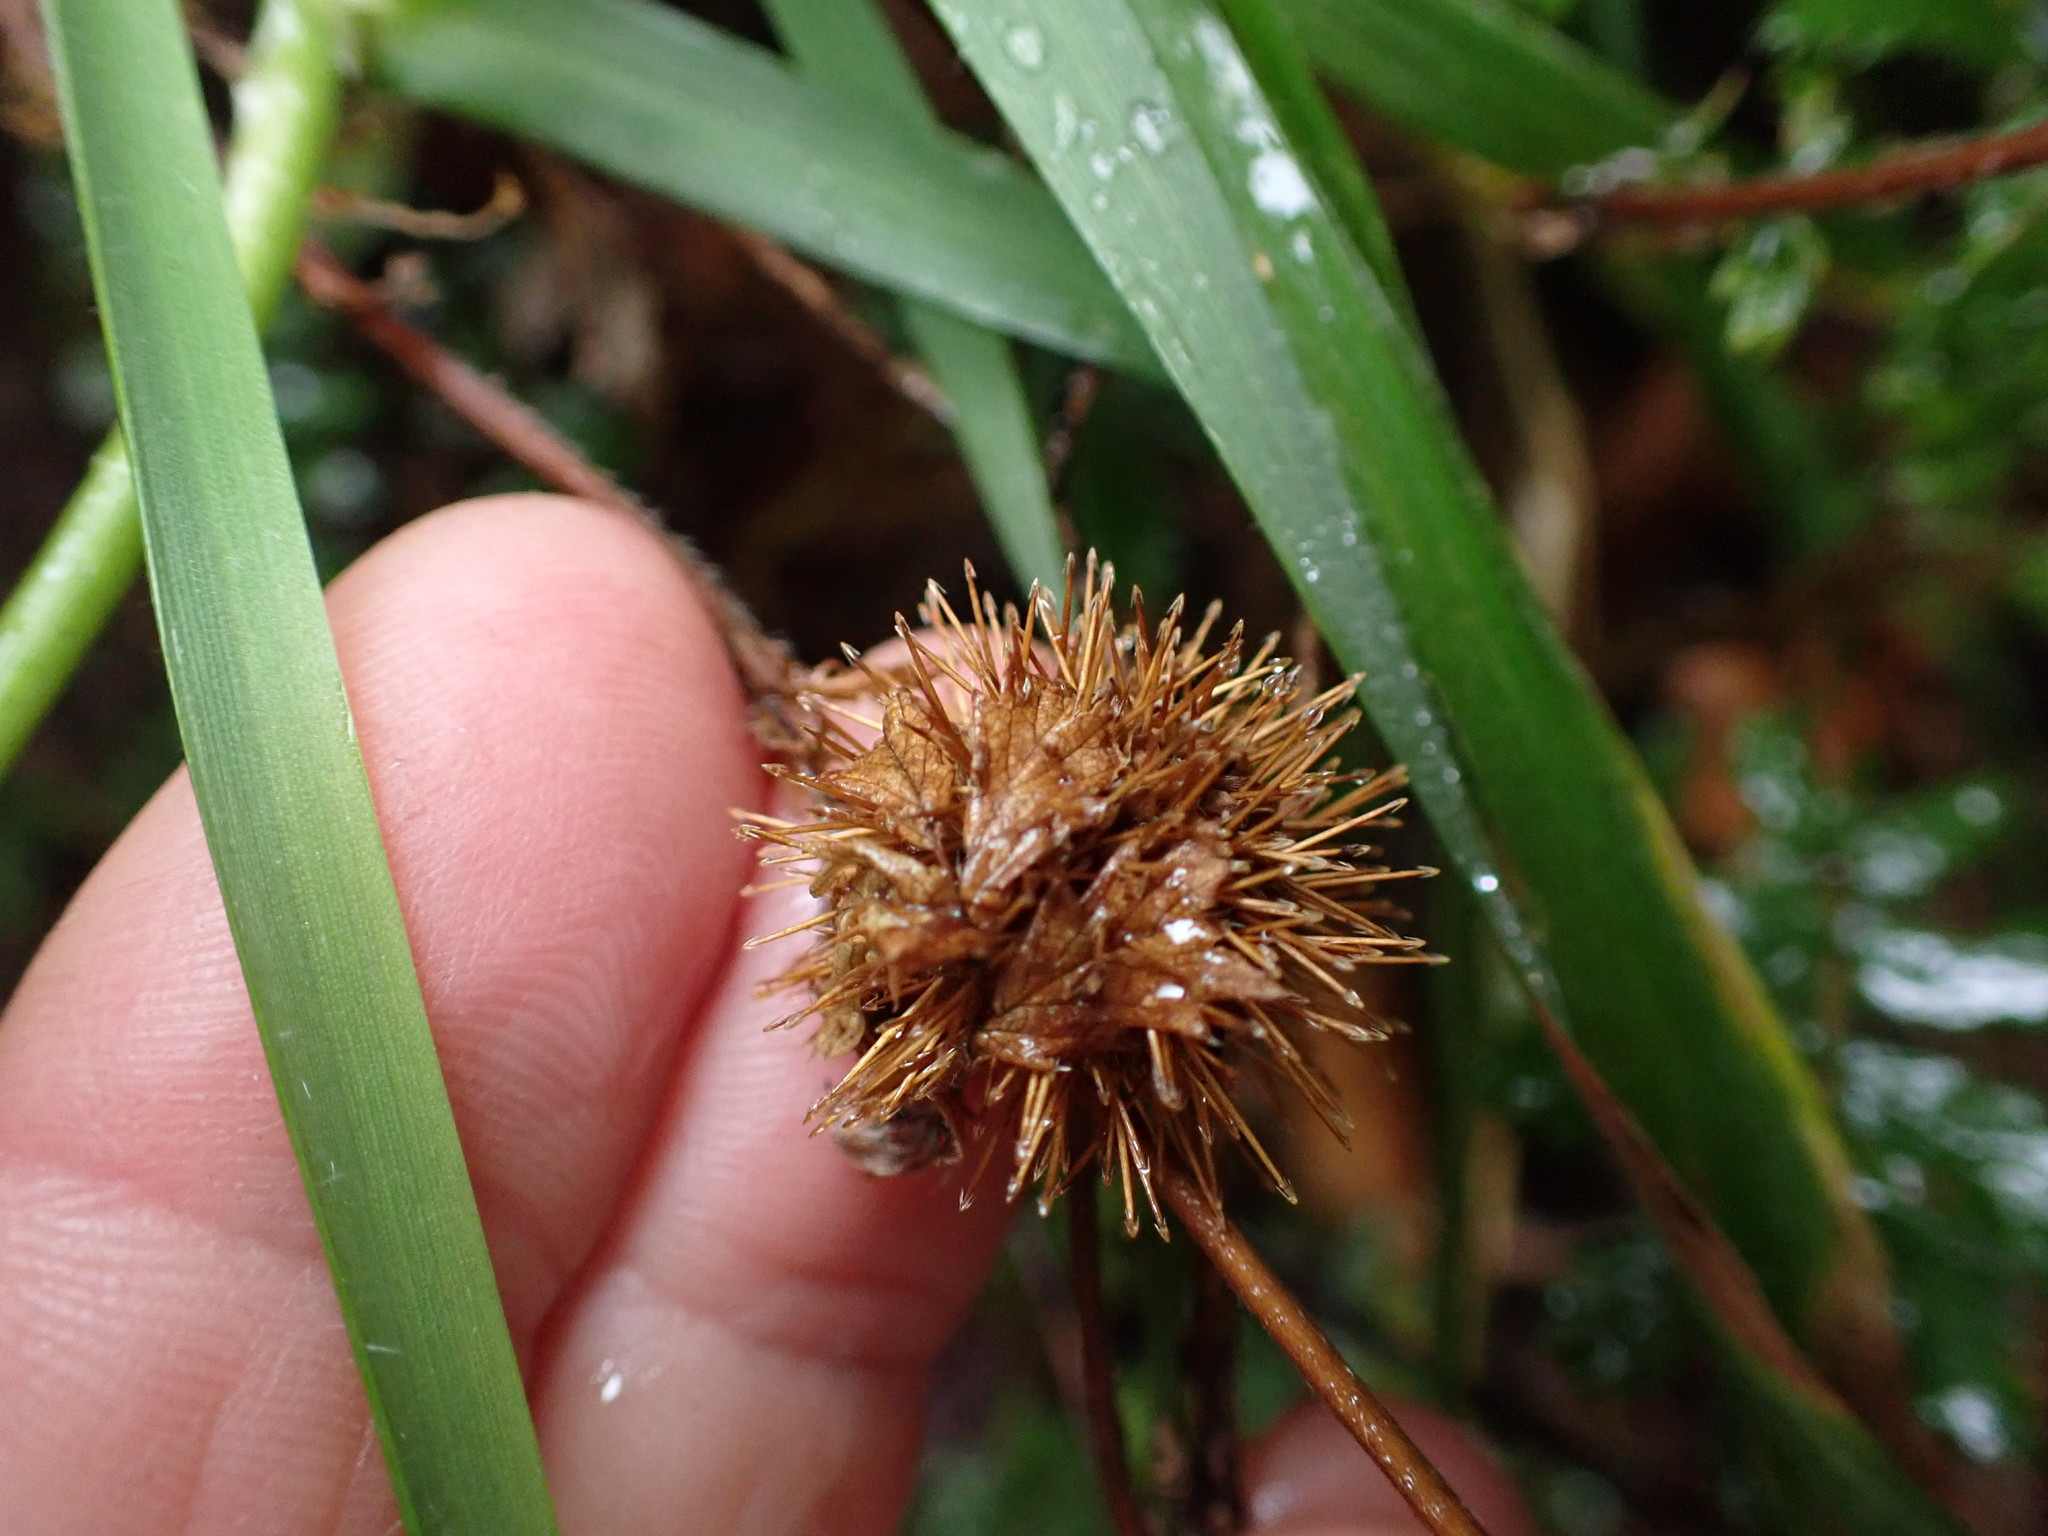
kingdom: Plantae
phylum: Tracheophyta
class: Magnoliopsida
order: Rosales
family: Rosaceae
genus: Acaena
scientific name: Acaena anserinifolia
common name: Bronze pirri-pirri-bur
